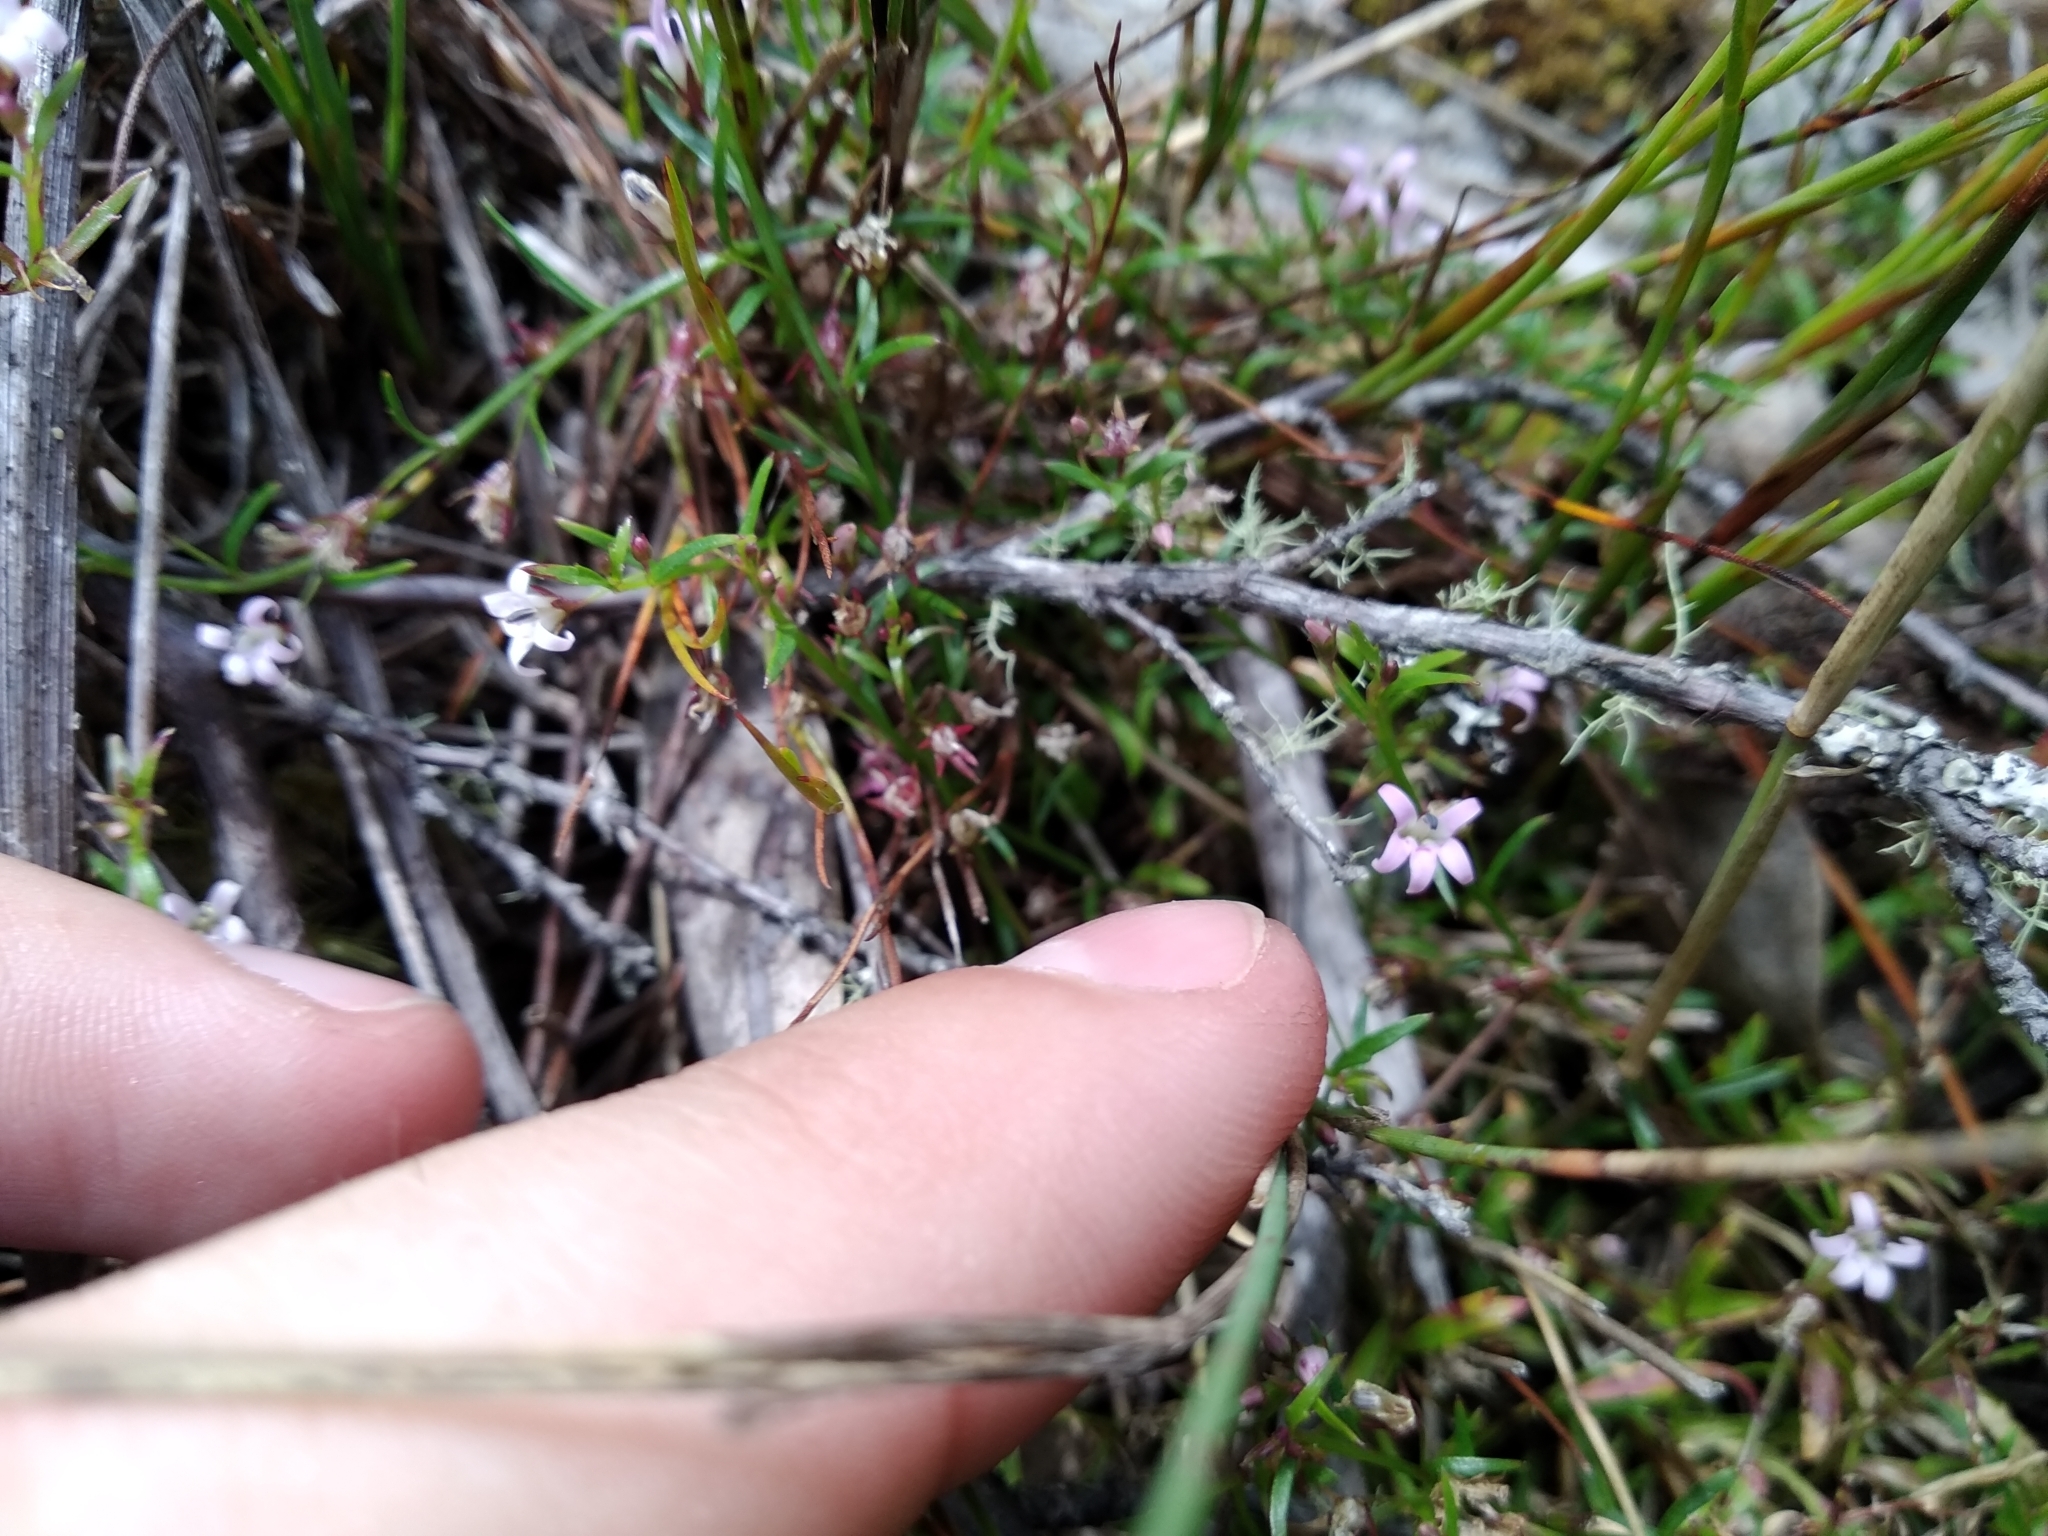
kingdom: Plantae
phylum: Tracheophyta
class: Magnoliopsida
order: Asterales
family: Campanulaceae
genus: Lobelia
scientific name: Lobelia eckloniana
